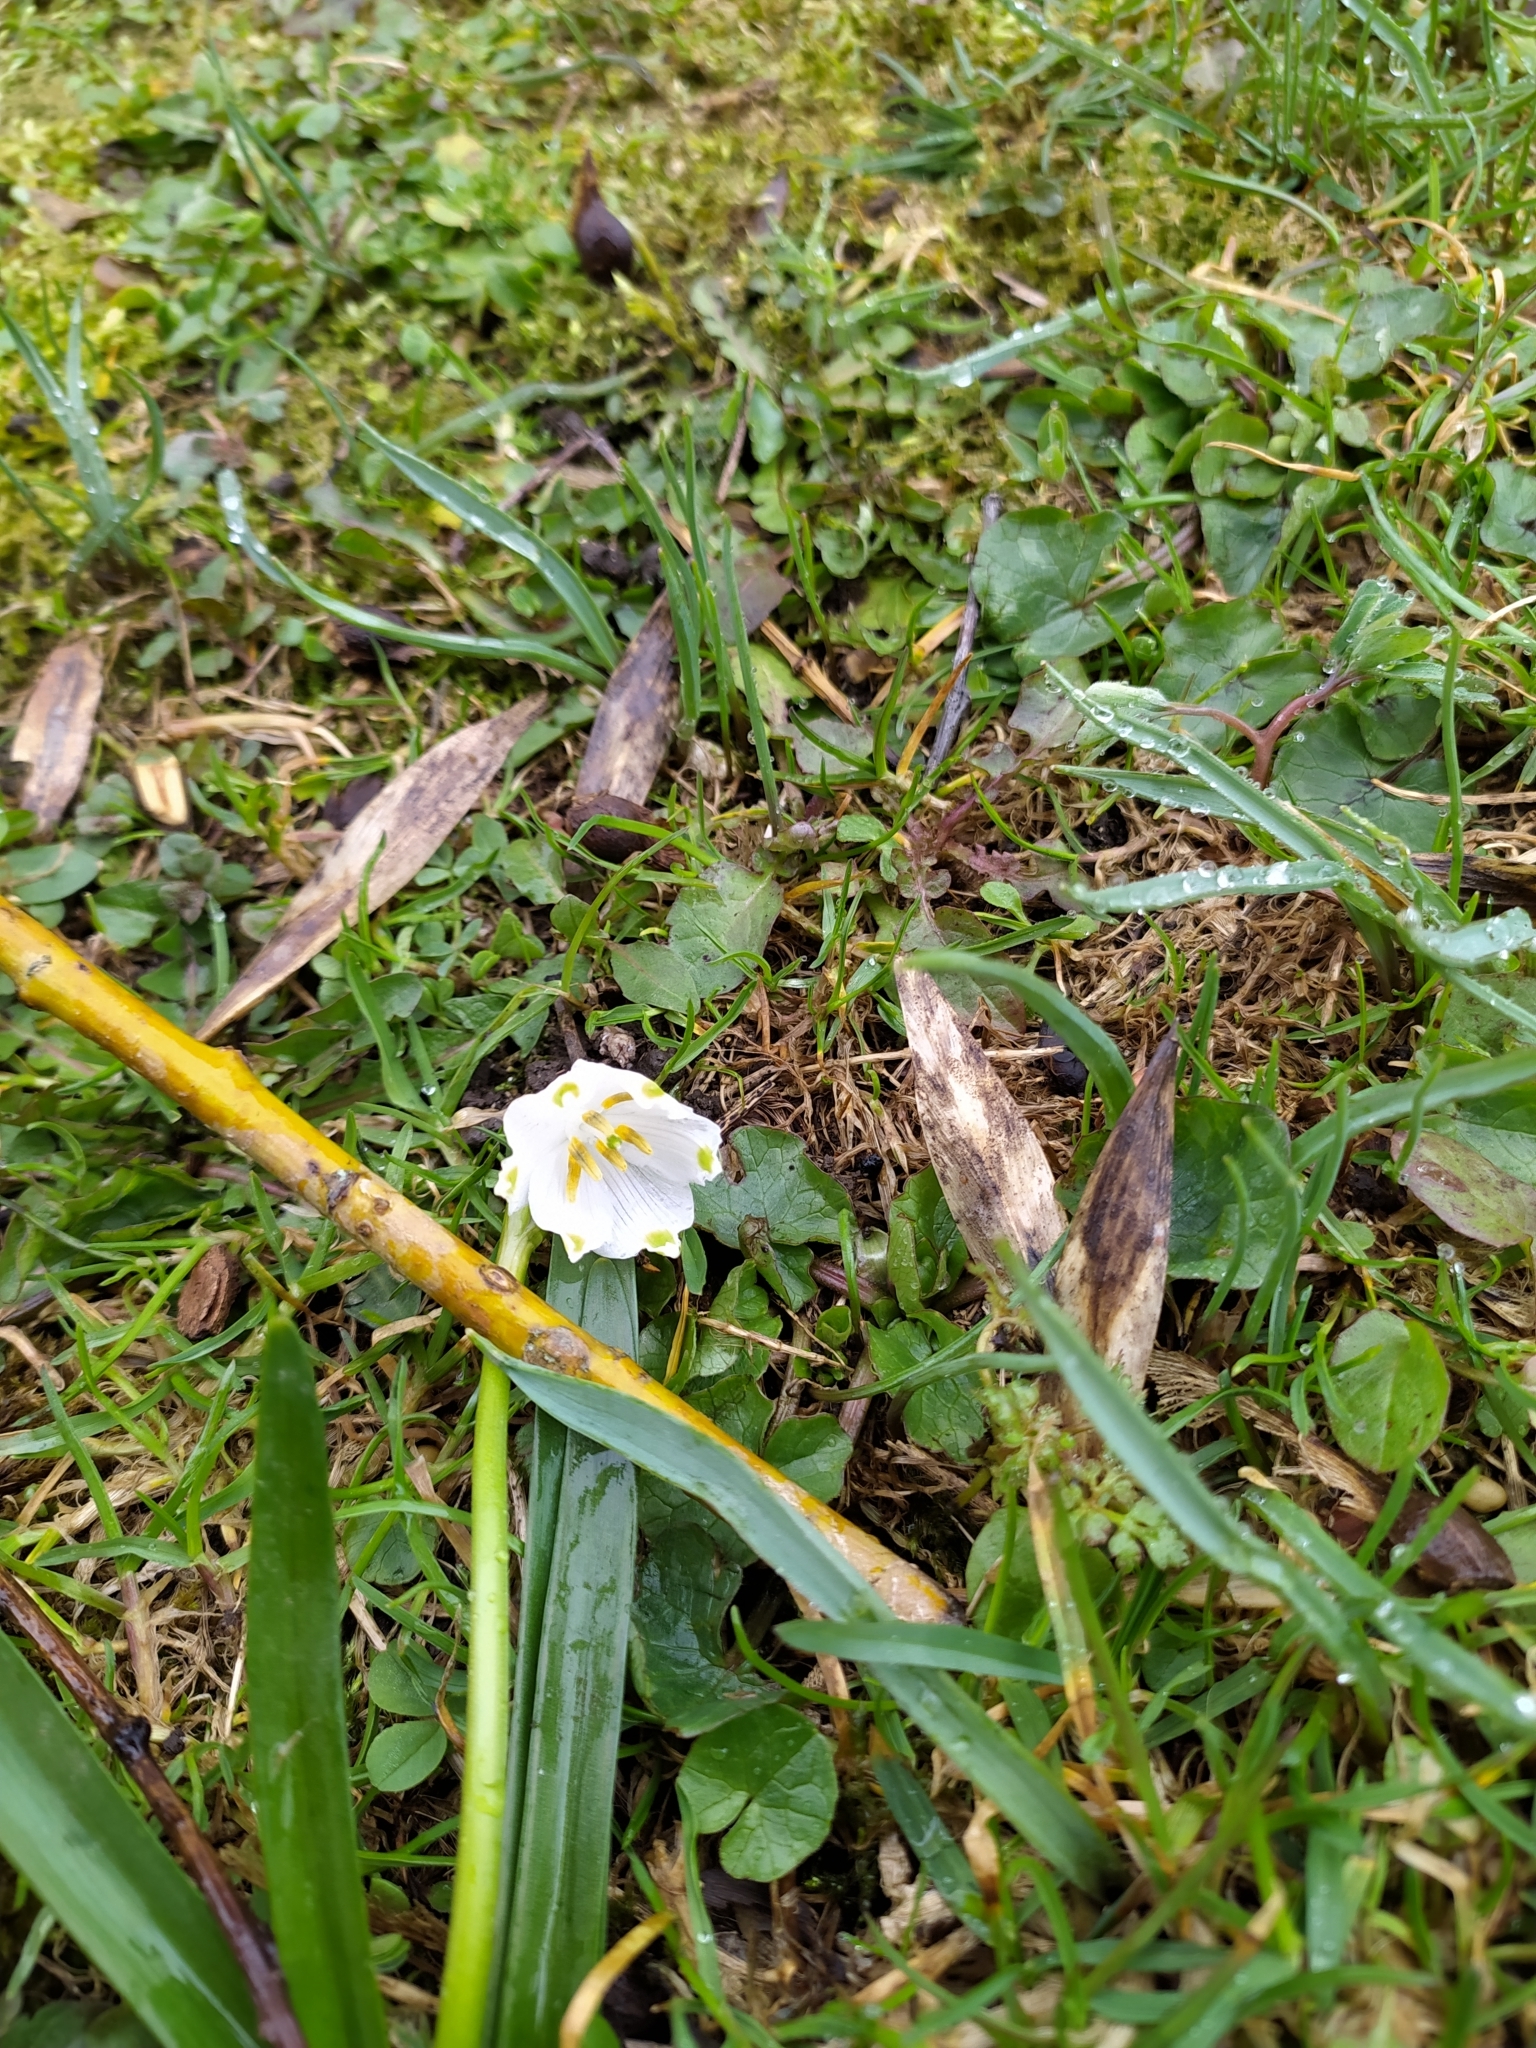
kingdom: Plantae
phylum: Tracheophyta
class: Liliopsida
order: Asparagales
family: Amaryllidaceae
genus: Leucojum
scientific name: Leucojum vernum
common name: Spring snowflake
